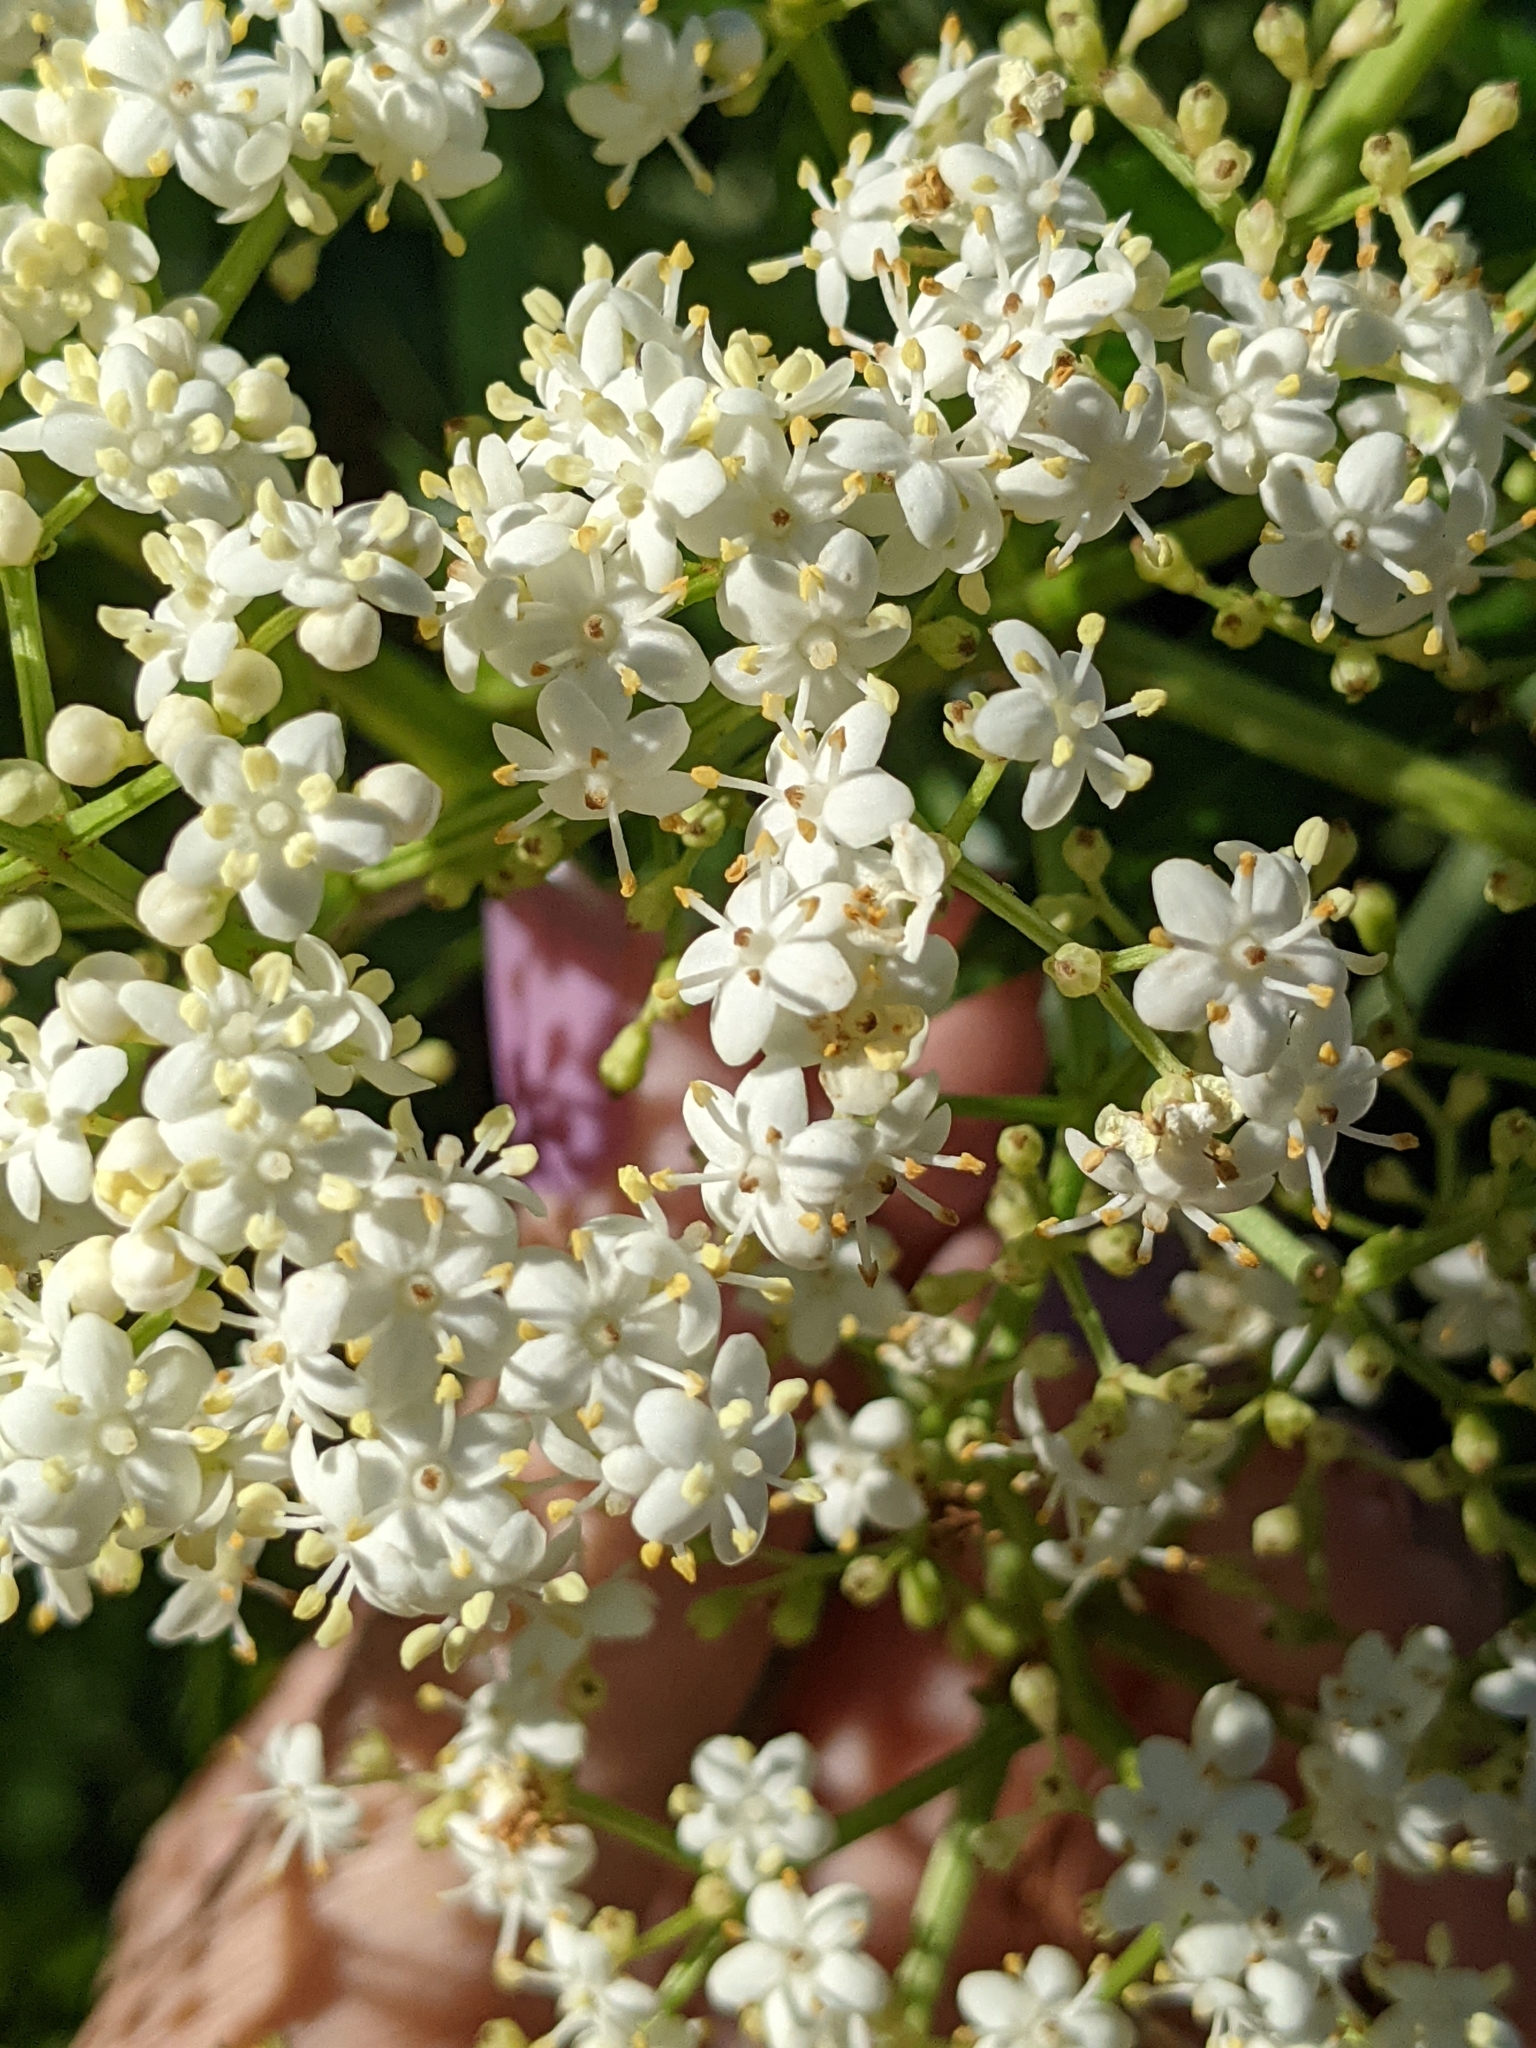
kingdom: Plantae
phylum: Tracheophyta
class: Magnoliopsida
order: Dipsacales
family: Viburnaceae
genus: Sambucus
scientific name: Sambucus canadensis
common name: American elder
